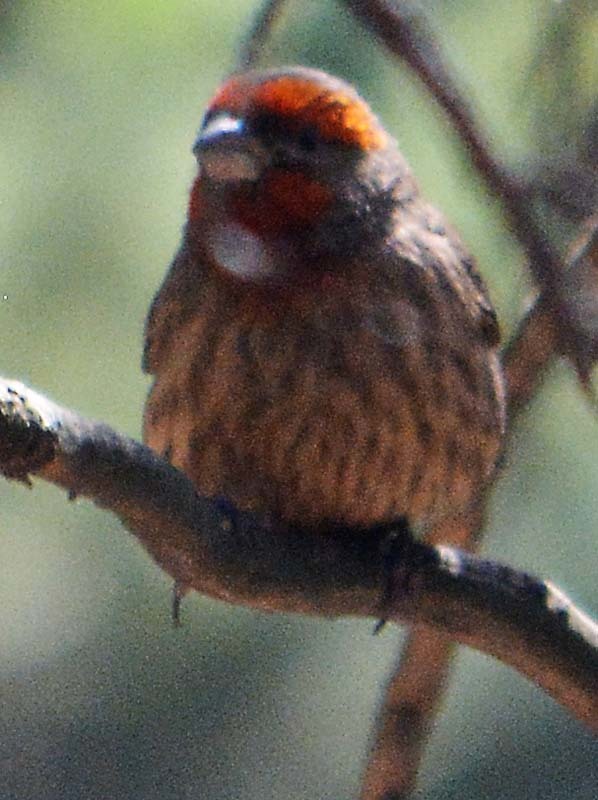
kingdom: Animalia
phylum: Chordata
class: Aves
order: Passeriformes
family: Fringillidae
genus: Haemorhous
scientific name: Haemorhous mexicanus
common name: House finch
